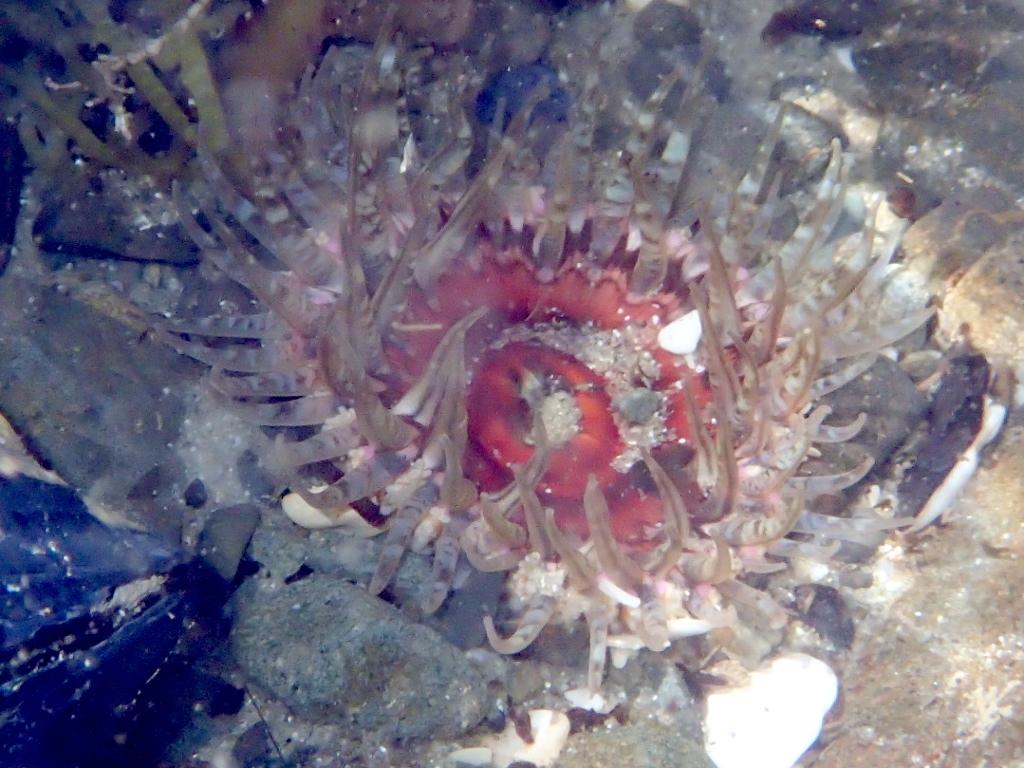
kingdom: Animalia
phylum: Cnidaria
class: Anthozoa
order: Actiniaria
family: Actiniidae
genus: Oulactis
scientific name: Oulactis muscosa
